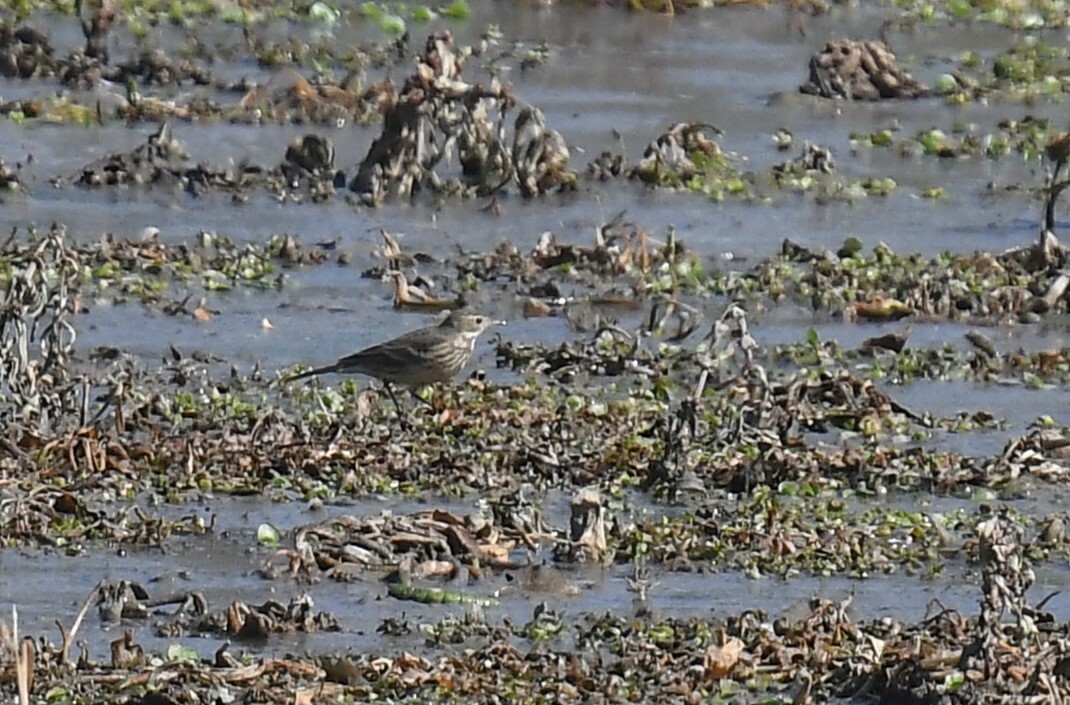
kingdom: Animalia
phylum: Chordata
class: Aves
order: Passeriformes
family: Motacillidae
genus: Anthus
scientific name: Anthus rubescens
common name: Buff-bellied pipit
